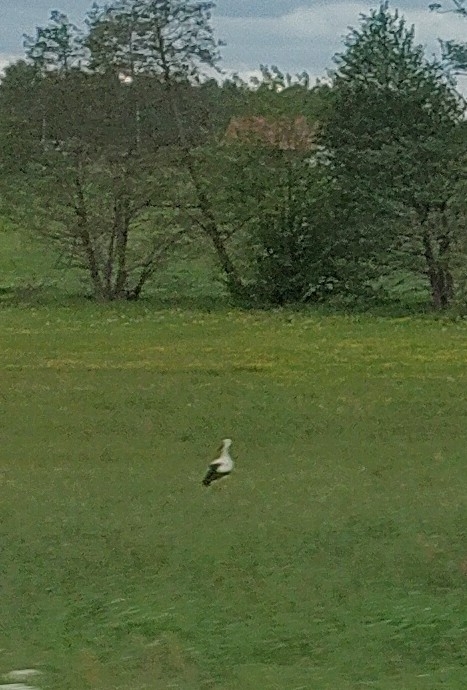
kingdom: Animalia
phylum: Chordata
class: Aves
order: Ciconiiformes
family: Ciconiidae
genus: Ciconia
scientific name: Ciconia ciconia
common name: White stork
